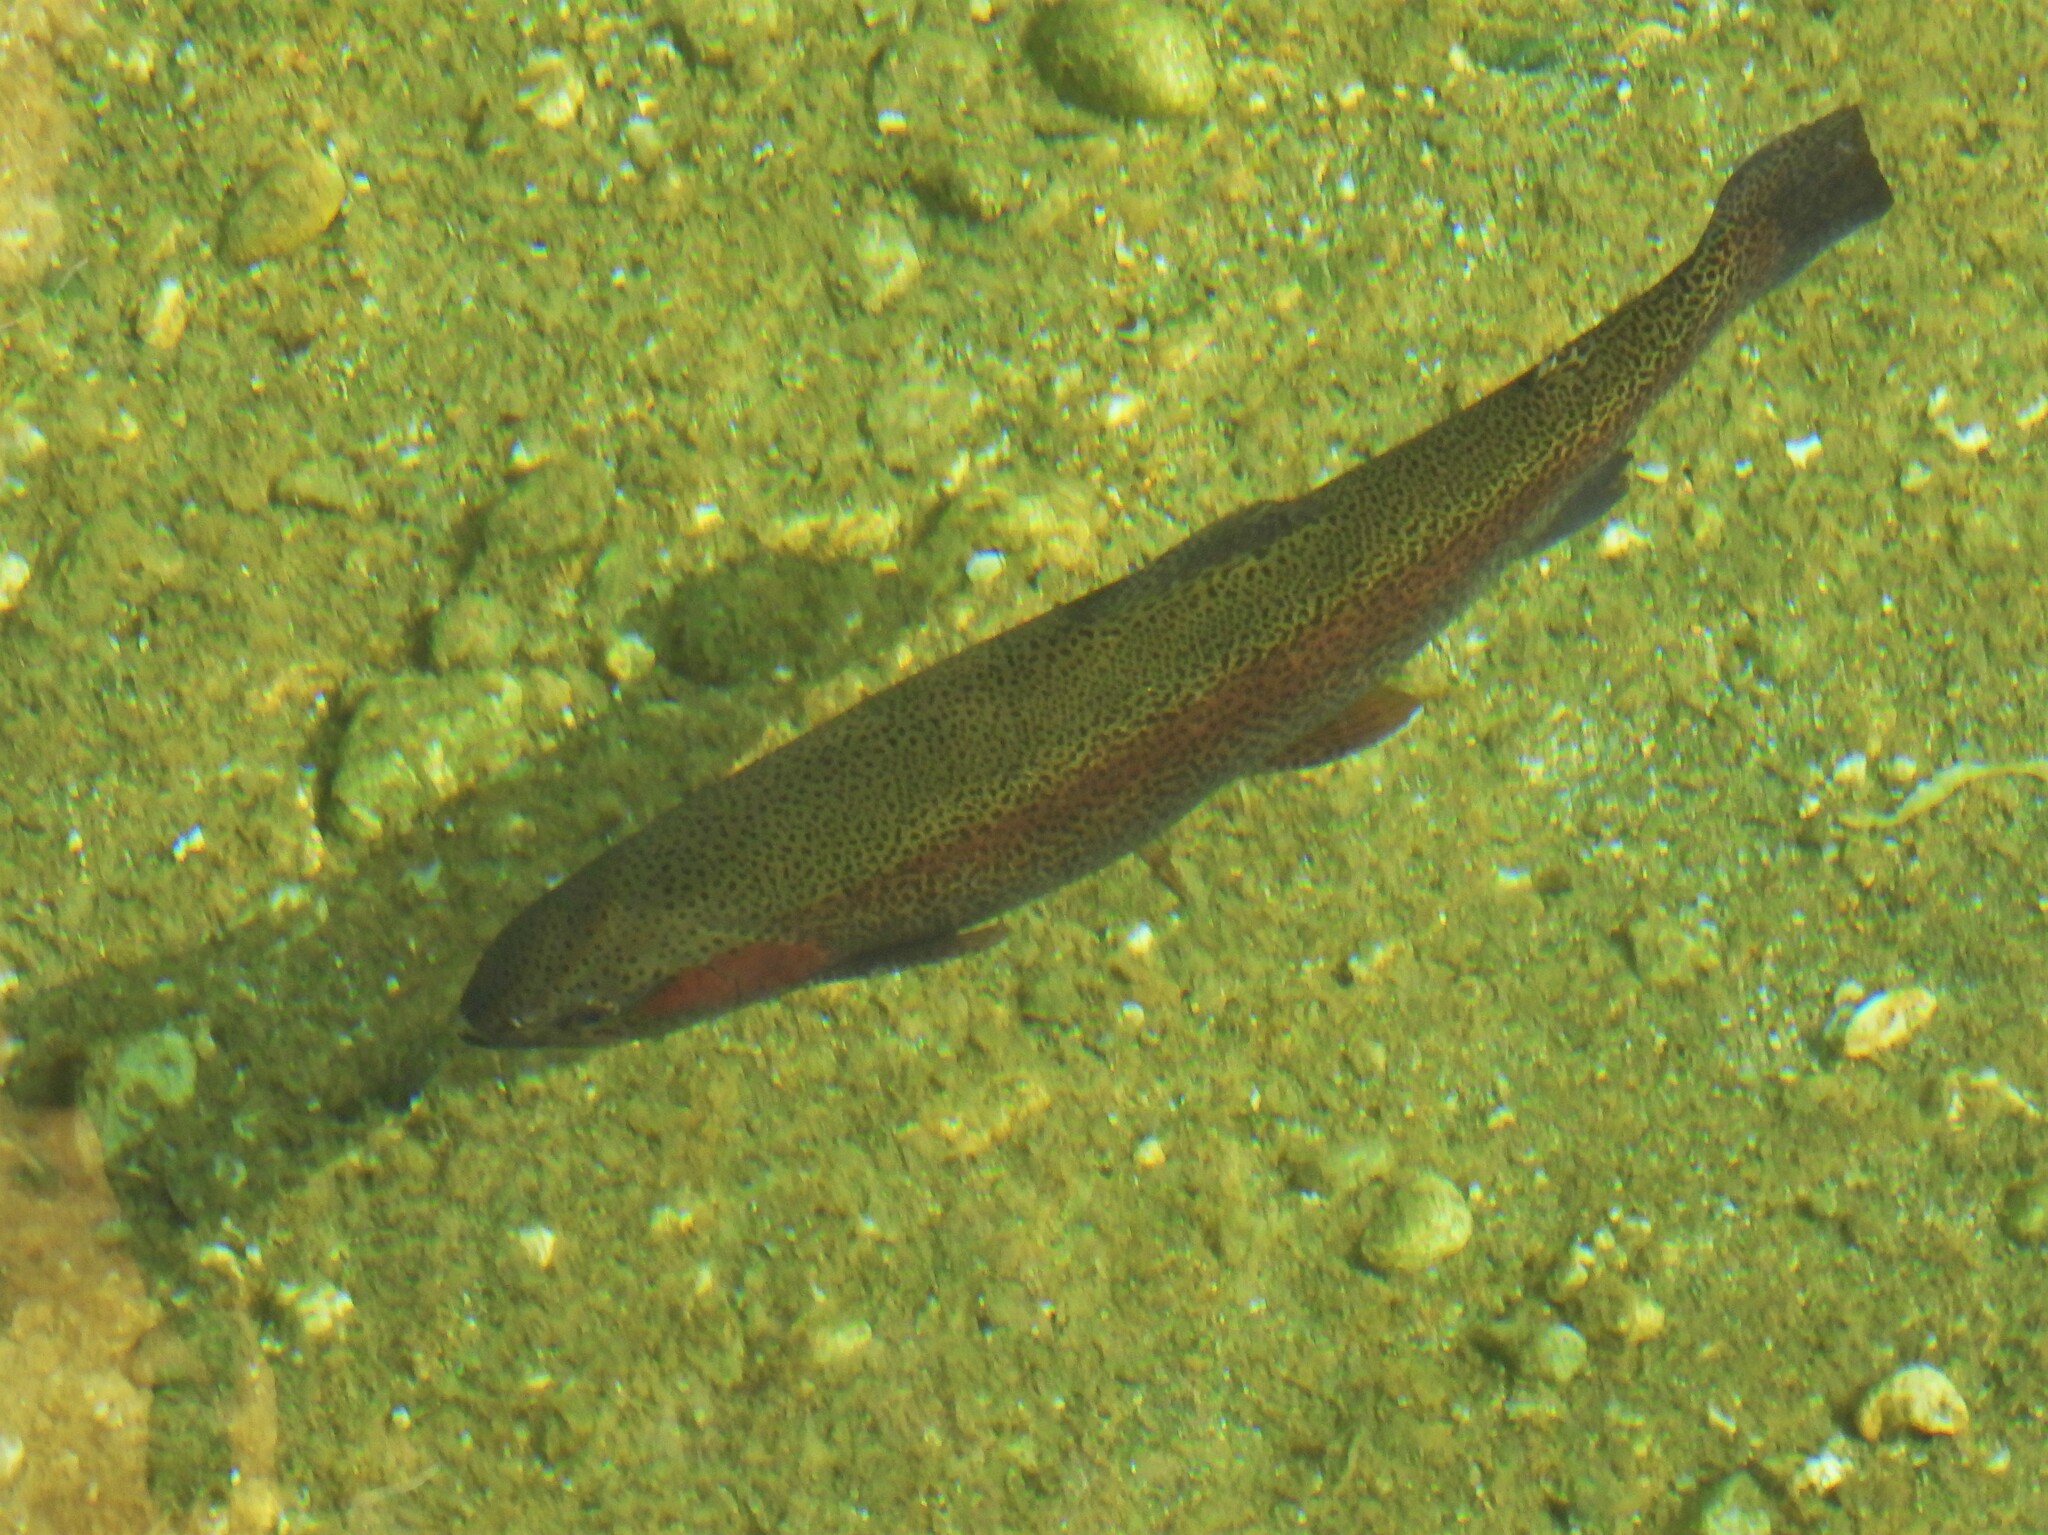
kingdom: Animalia
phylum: Chordata
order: Salmoniformes
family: Salmonidae
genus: Oncorhynchus
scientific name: Oncorhynchus mykiss
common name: Rainbow trout
